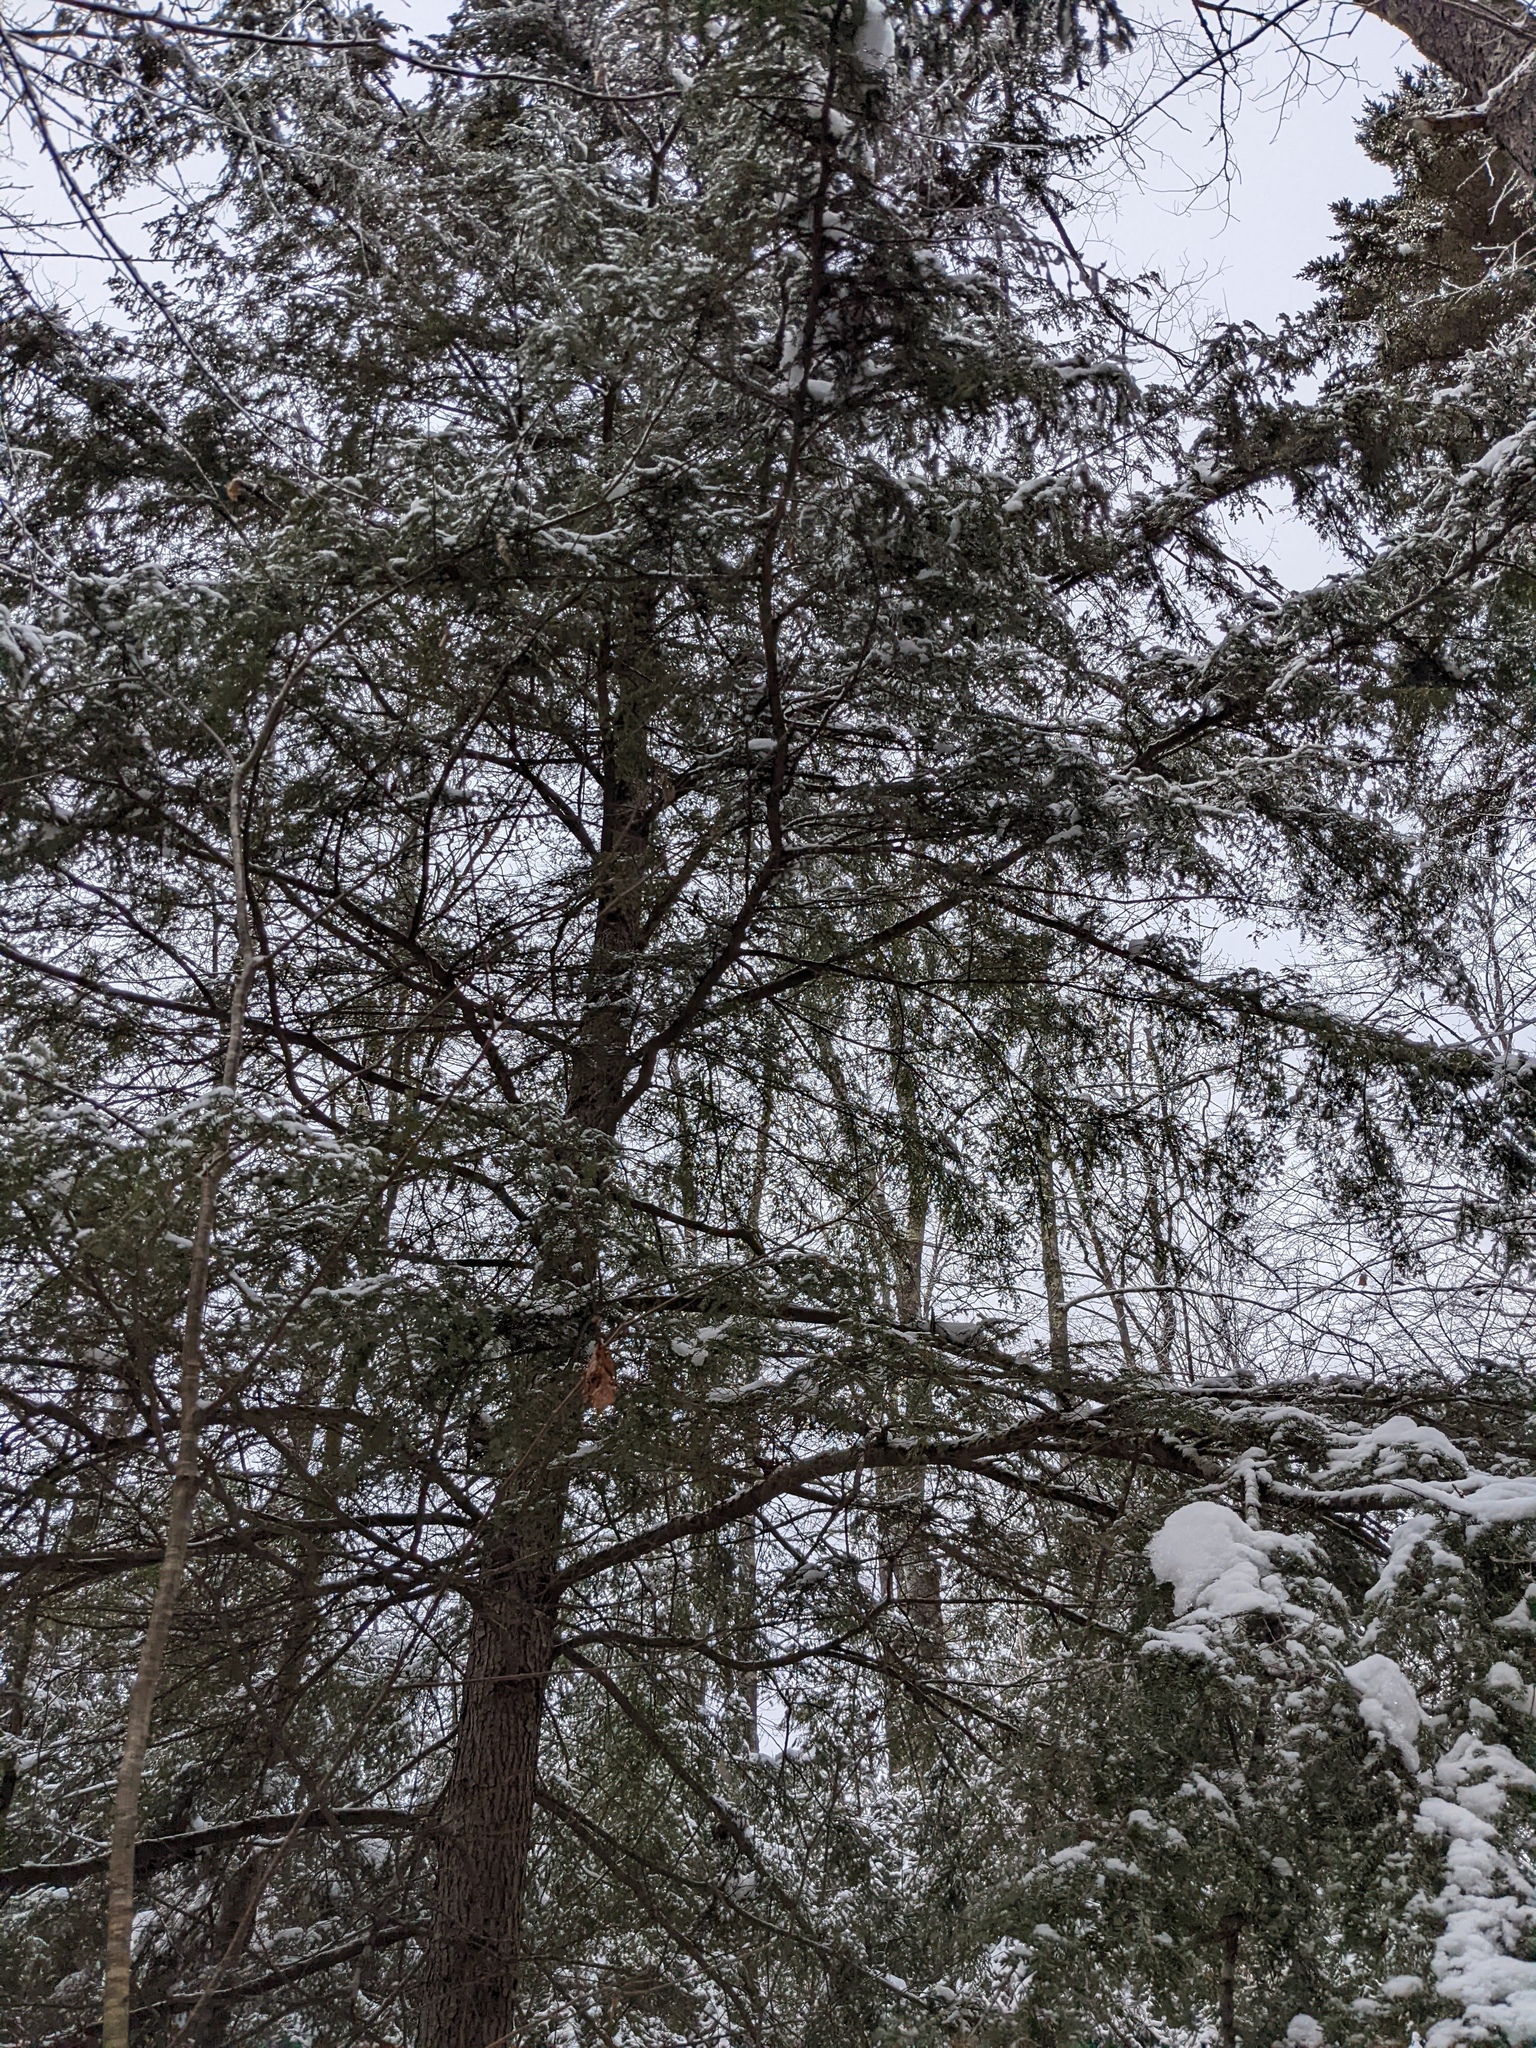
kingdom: Plantae
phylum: Tracheophyta
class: Pinopsida
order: Pinales
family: Pinaceae
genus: Tsuga
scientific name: Tsuga canadensis
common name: Eastern hemlock
